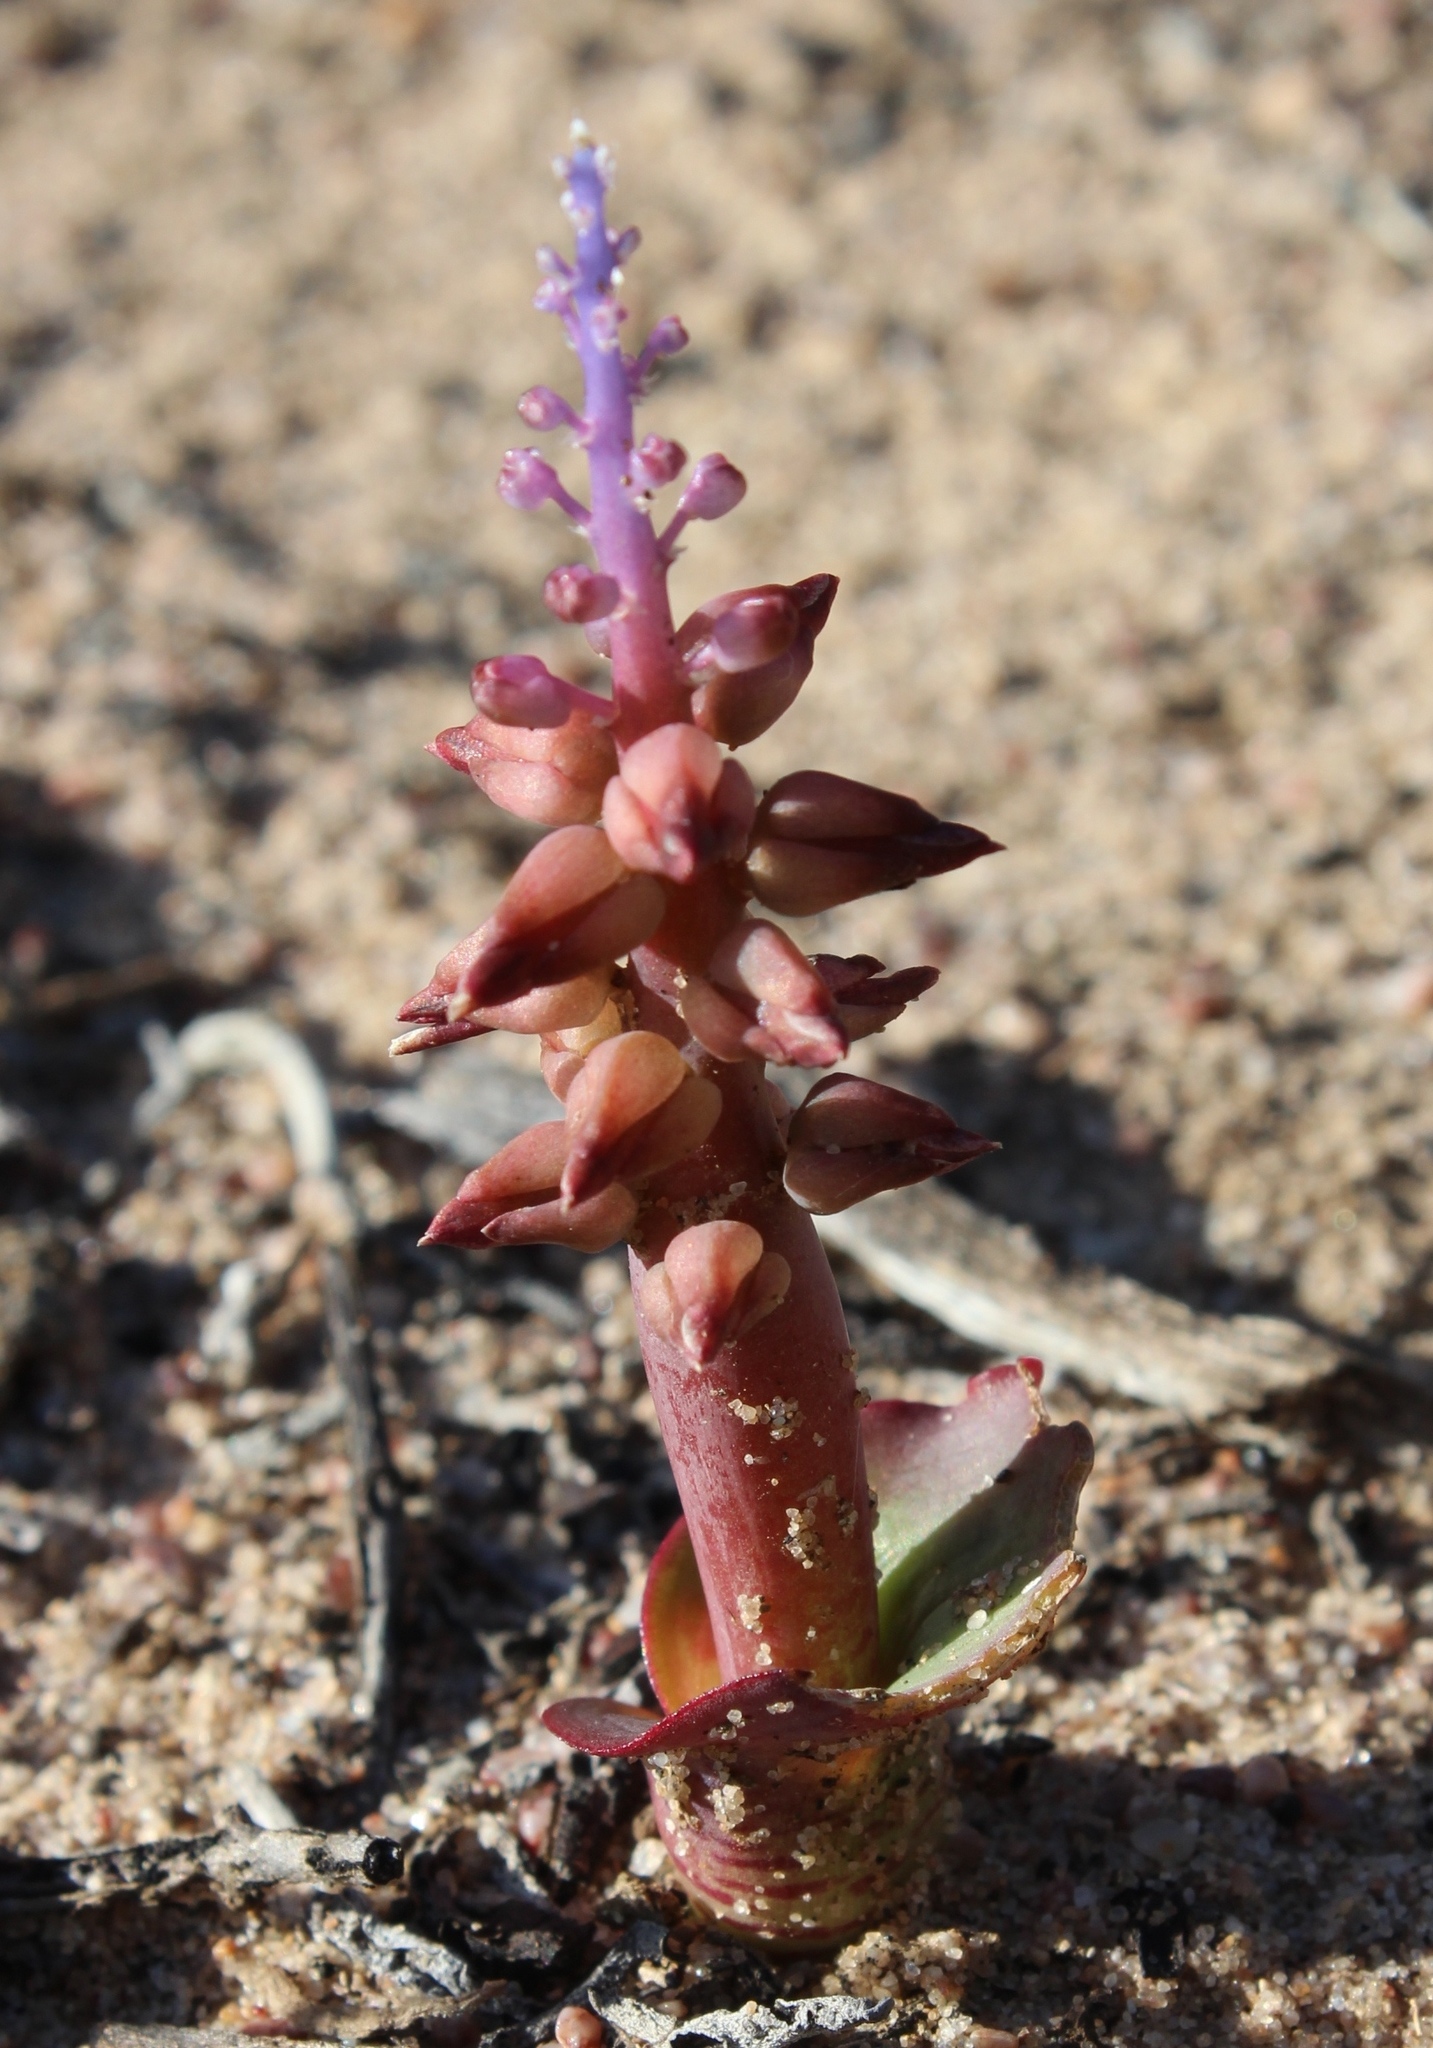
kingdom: Plantae
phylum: Tracheophyta
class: Liliopsida
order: Asparagales
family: Asparagaceae
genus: Lachenalia
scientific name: Lachenalia mutabilis
